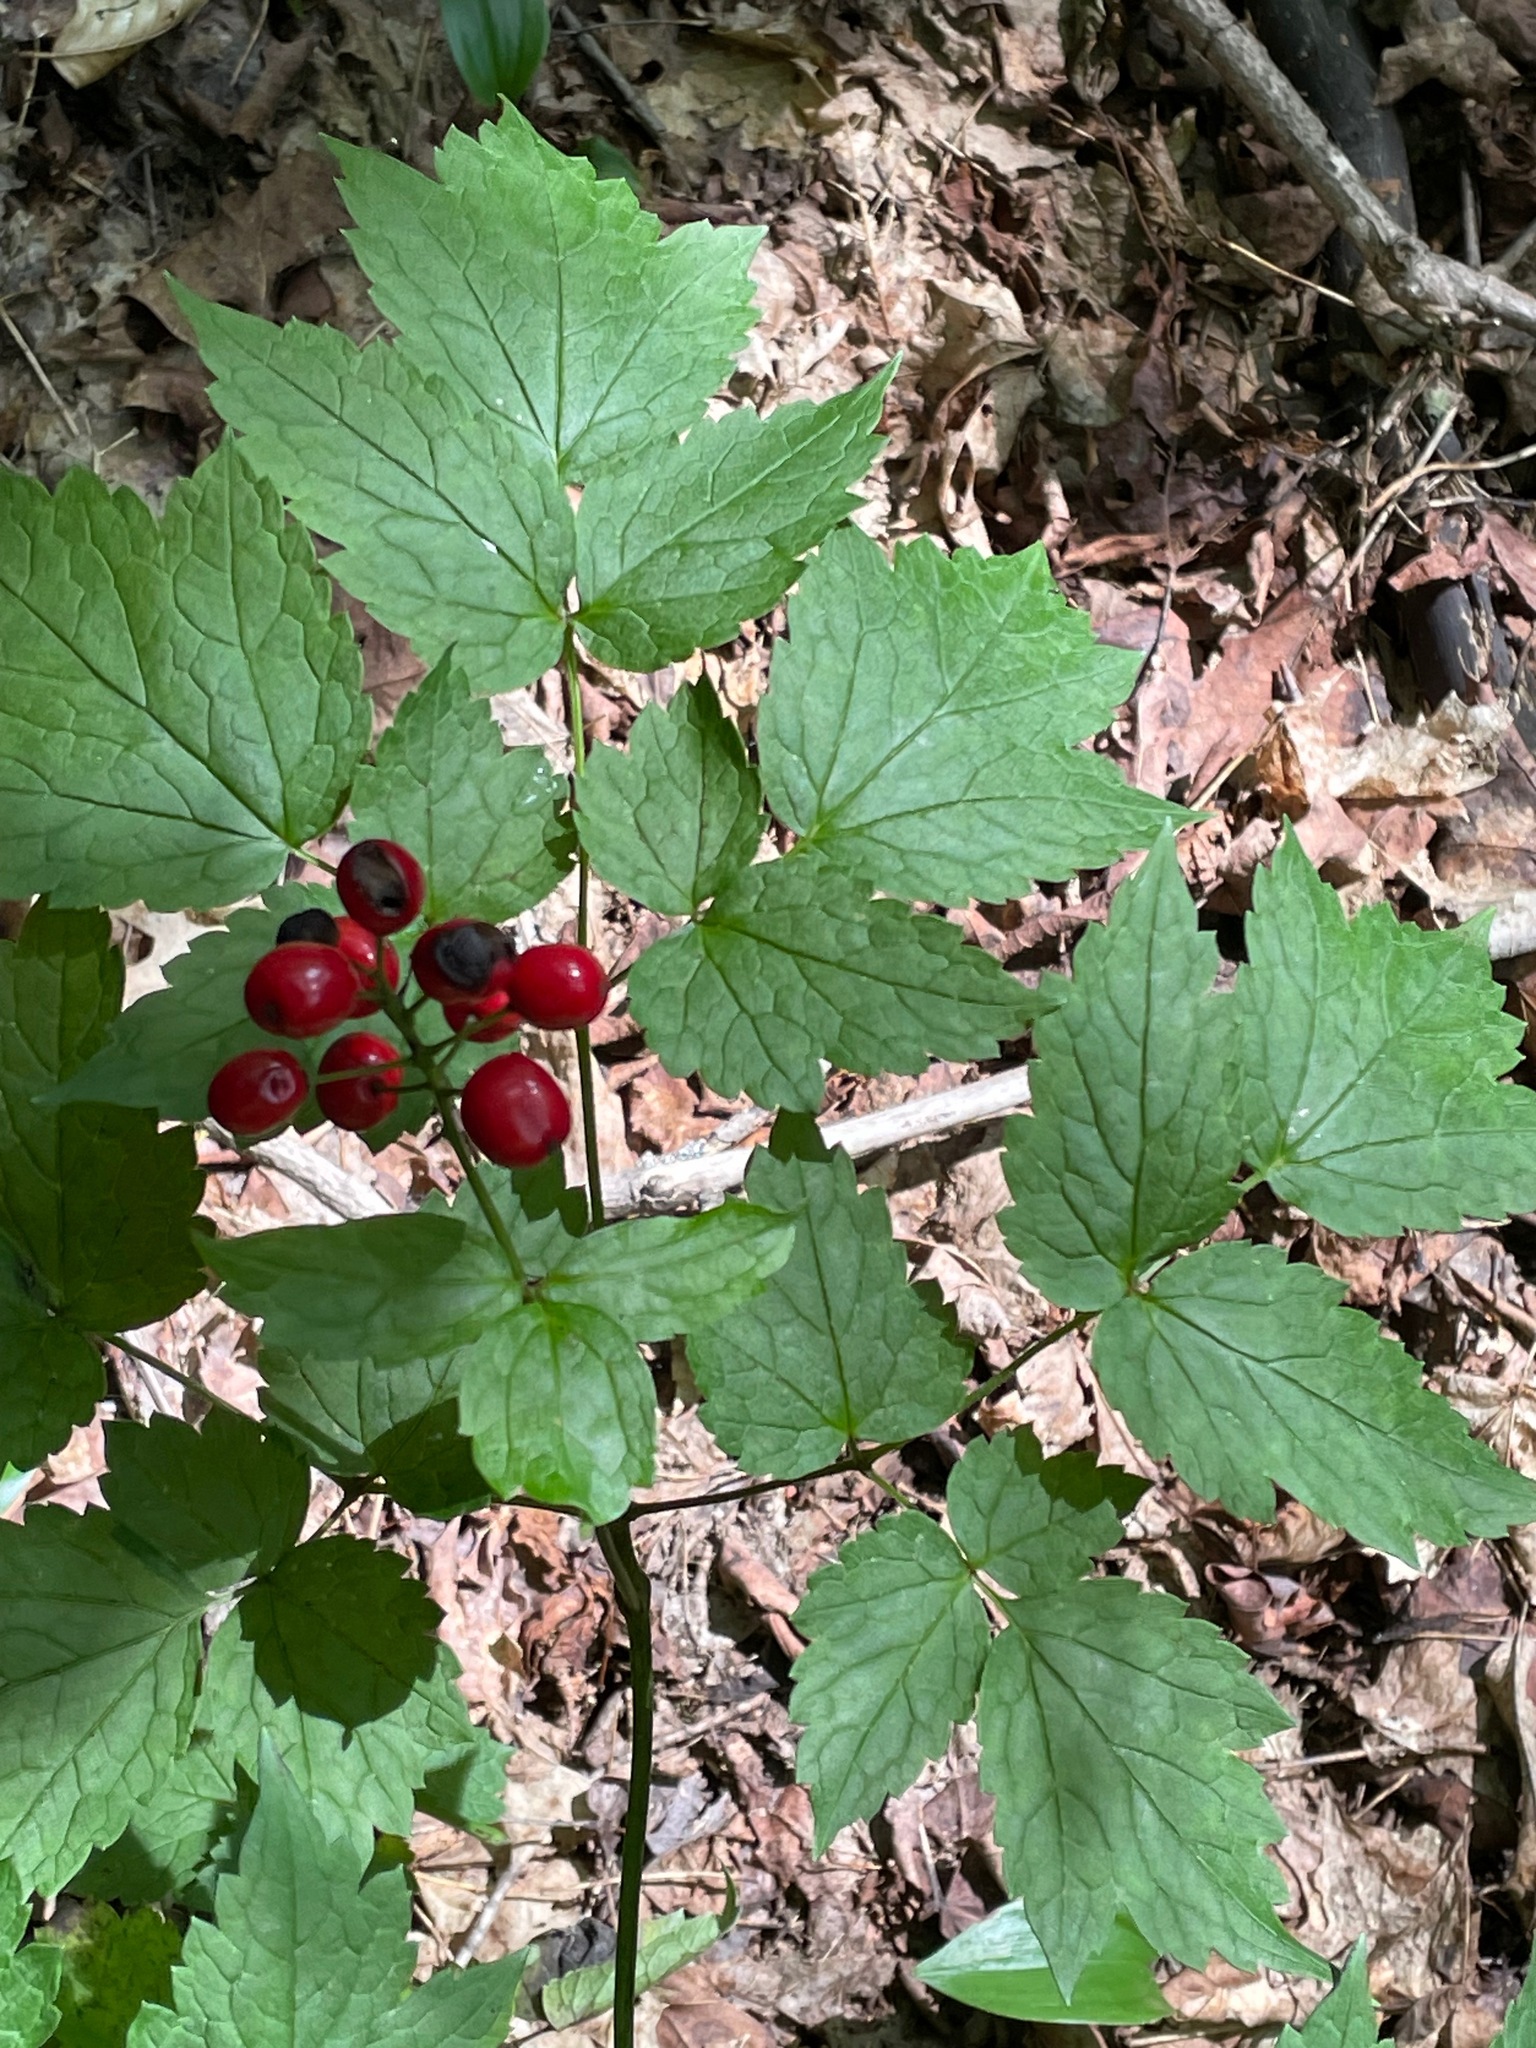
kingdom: Plantae
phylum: Tracheophyta
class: Magnoliopsida
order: Ranunculales
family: Ranunculaceae
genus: Actaea
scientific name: Actaea rubra
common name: Red baneberry
